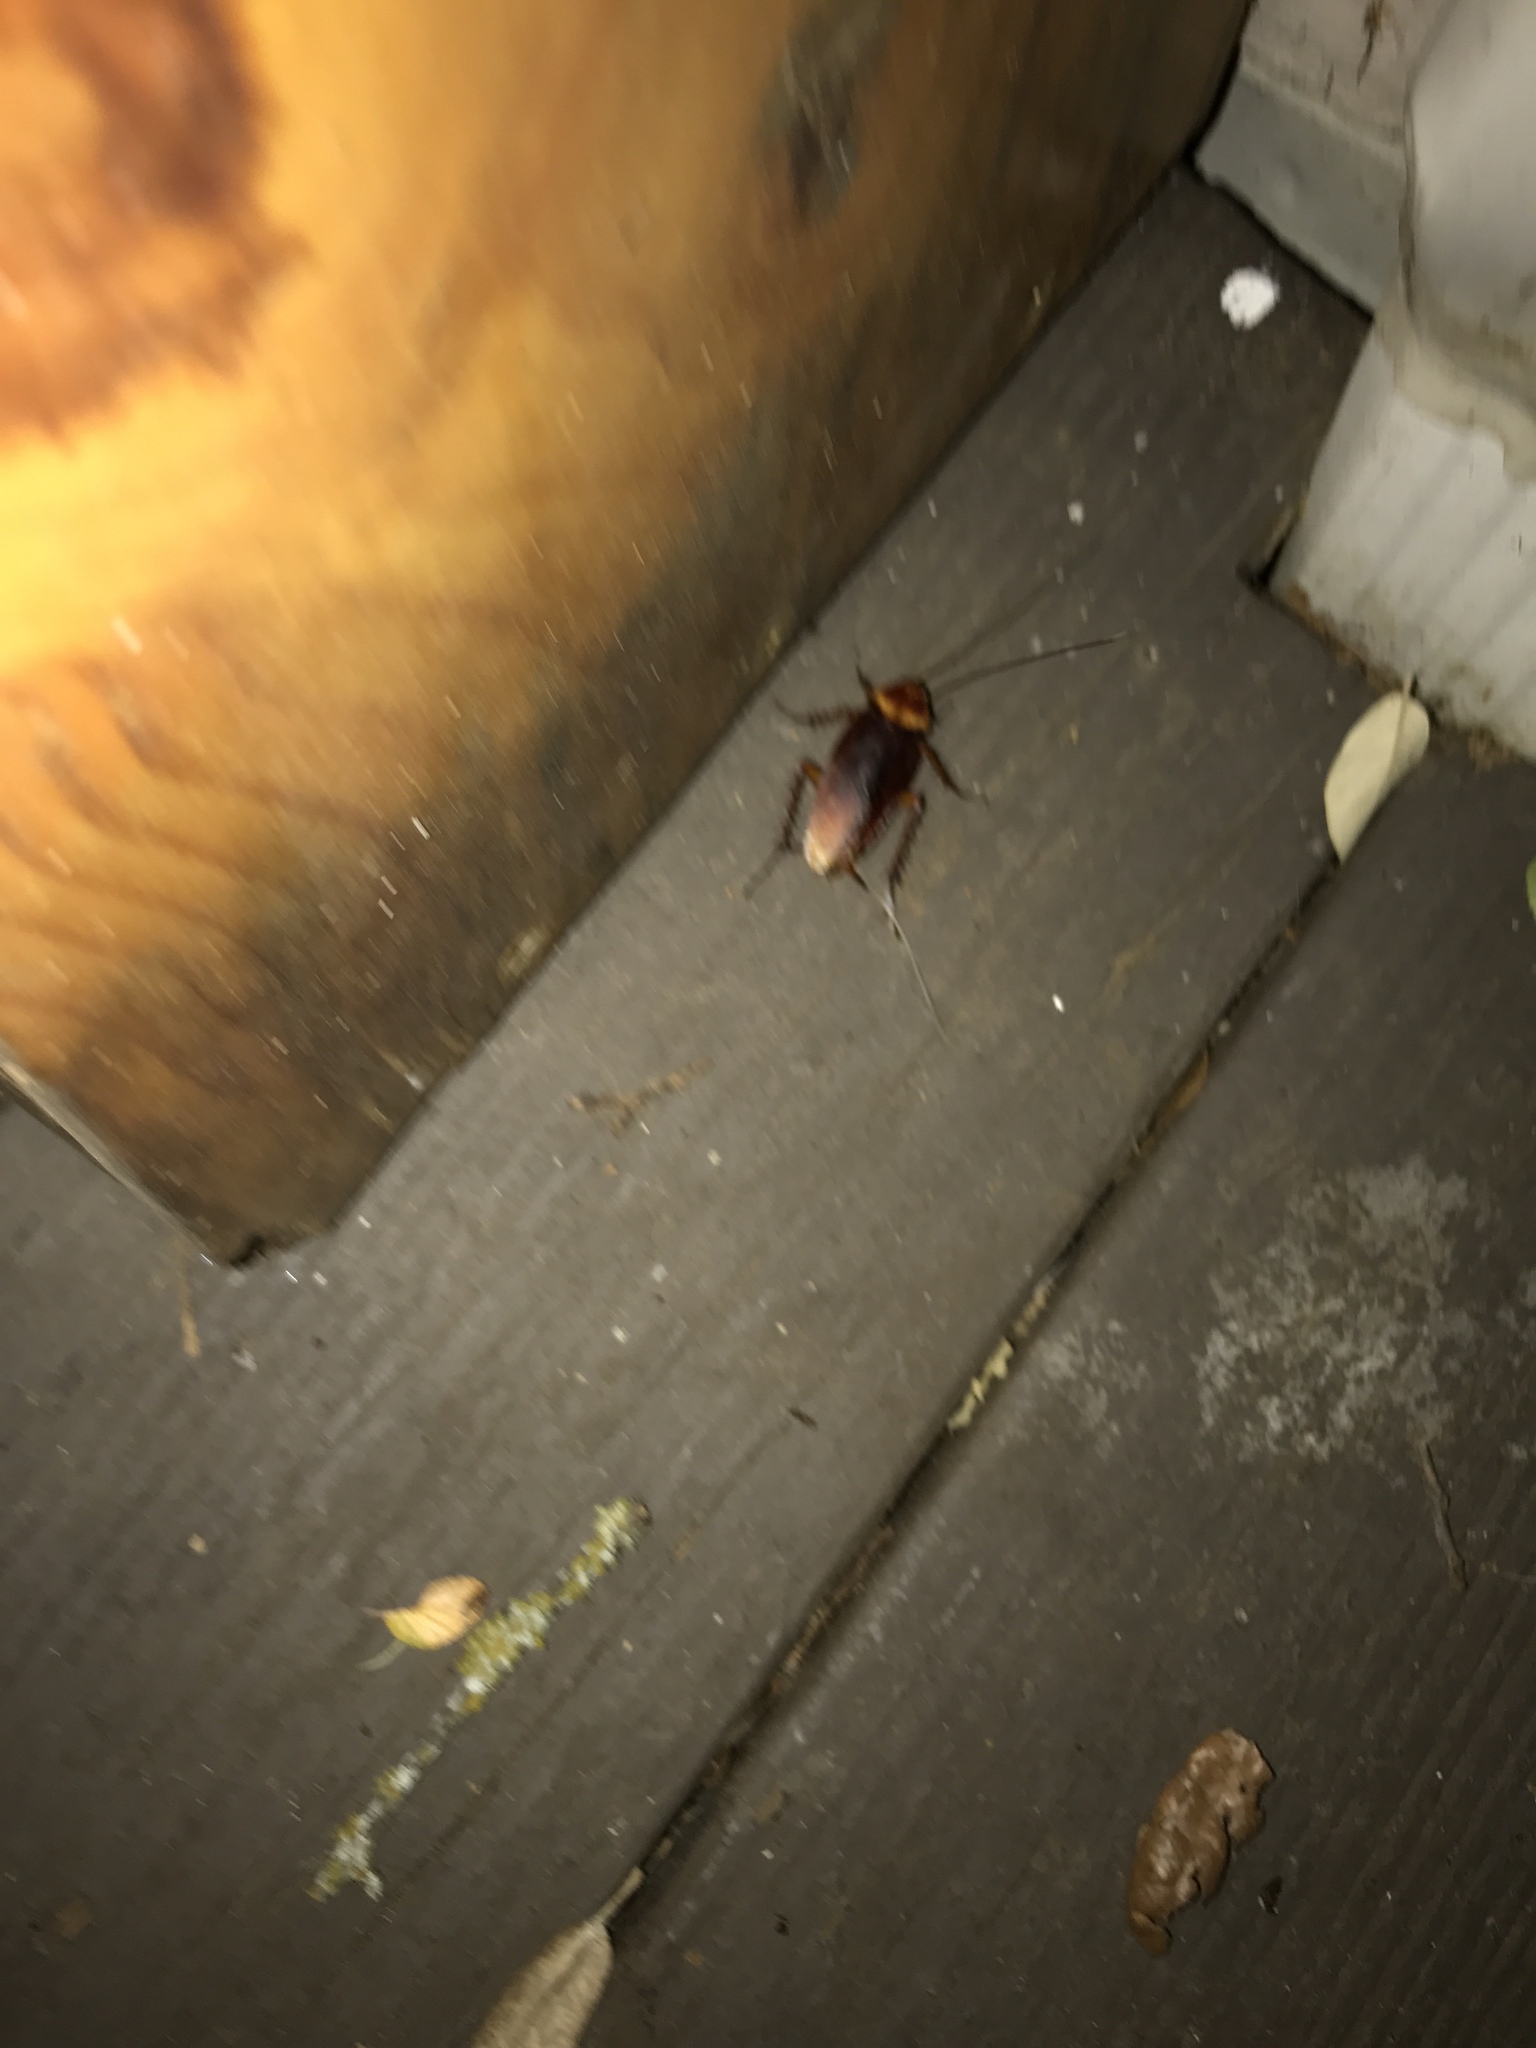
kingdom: Animalia
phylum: Arthropoda
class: Insecta
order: Blattodea
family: Blattidae
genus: Periplaneta
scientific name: Periplaneta americana
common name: American cockroach
